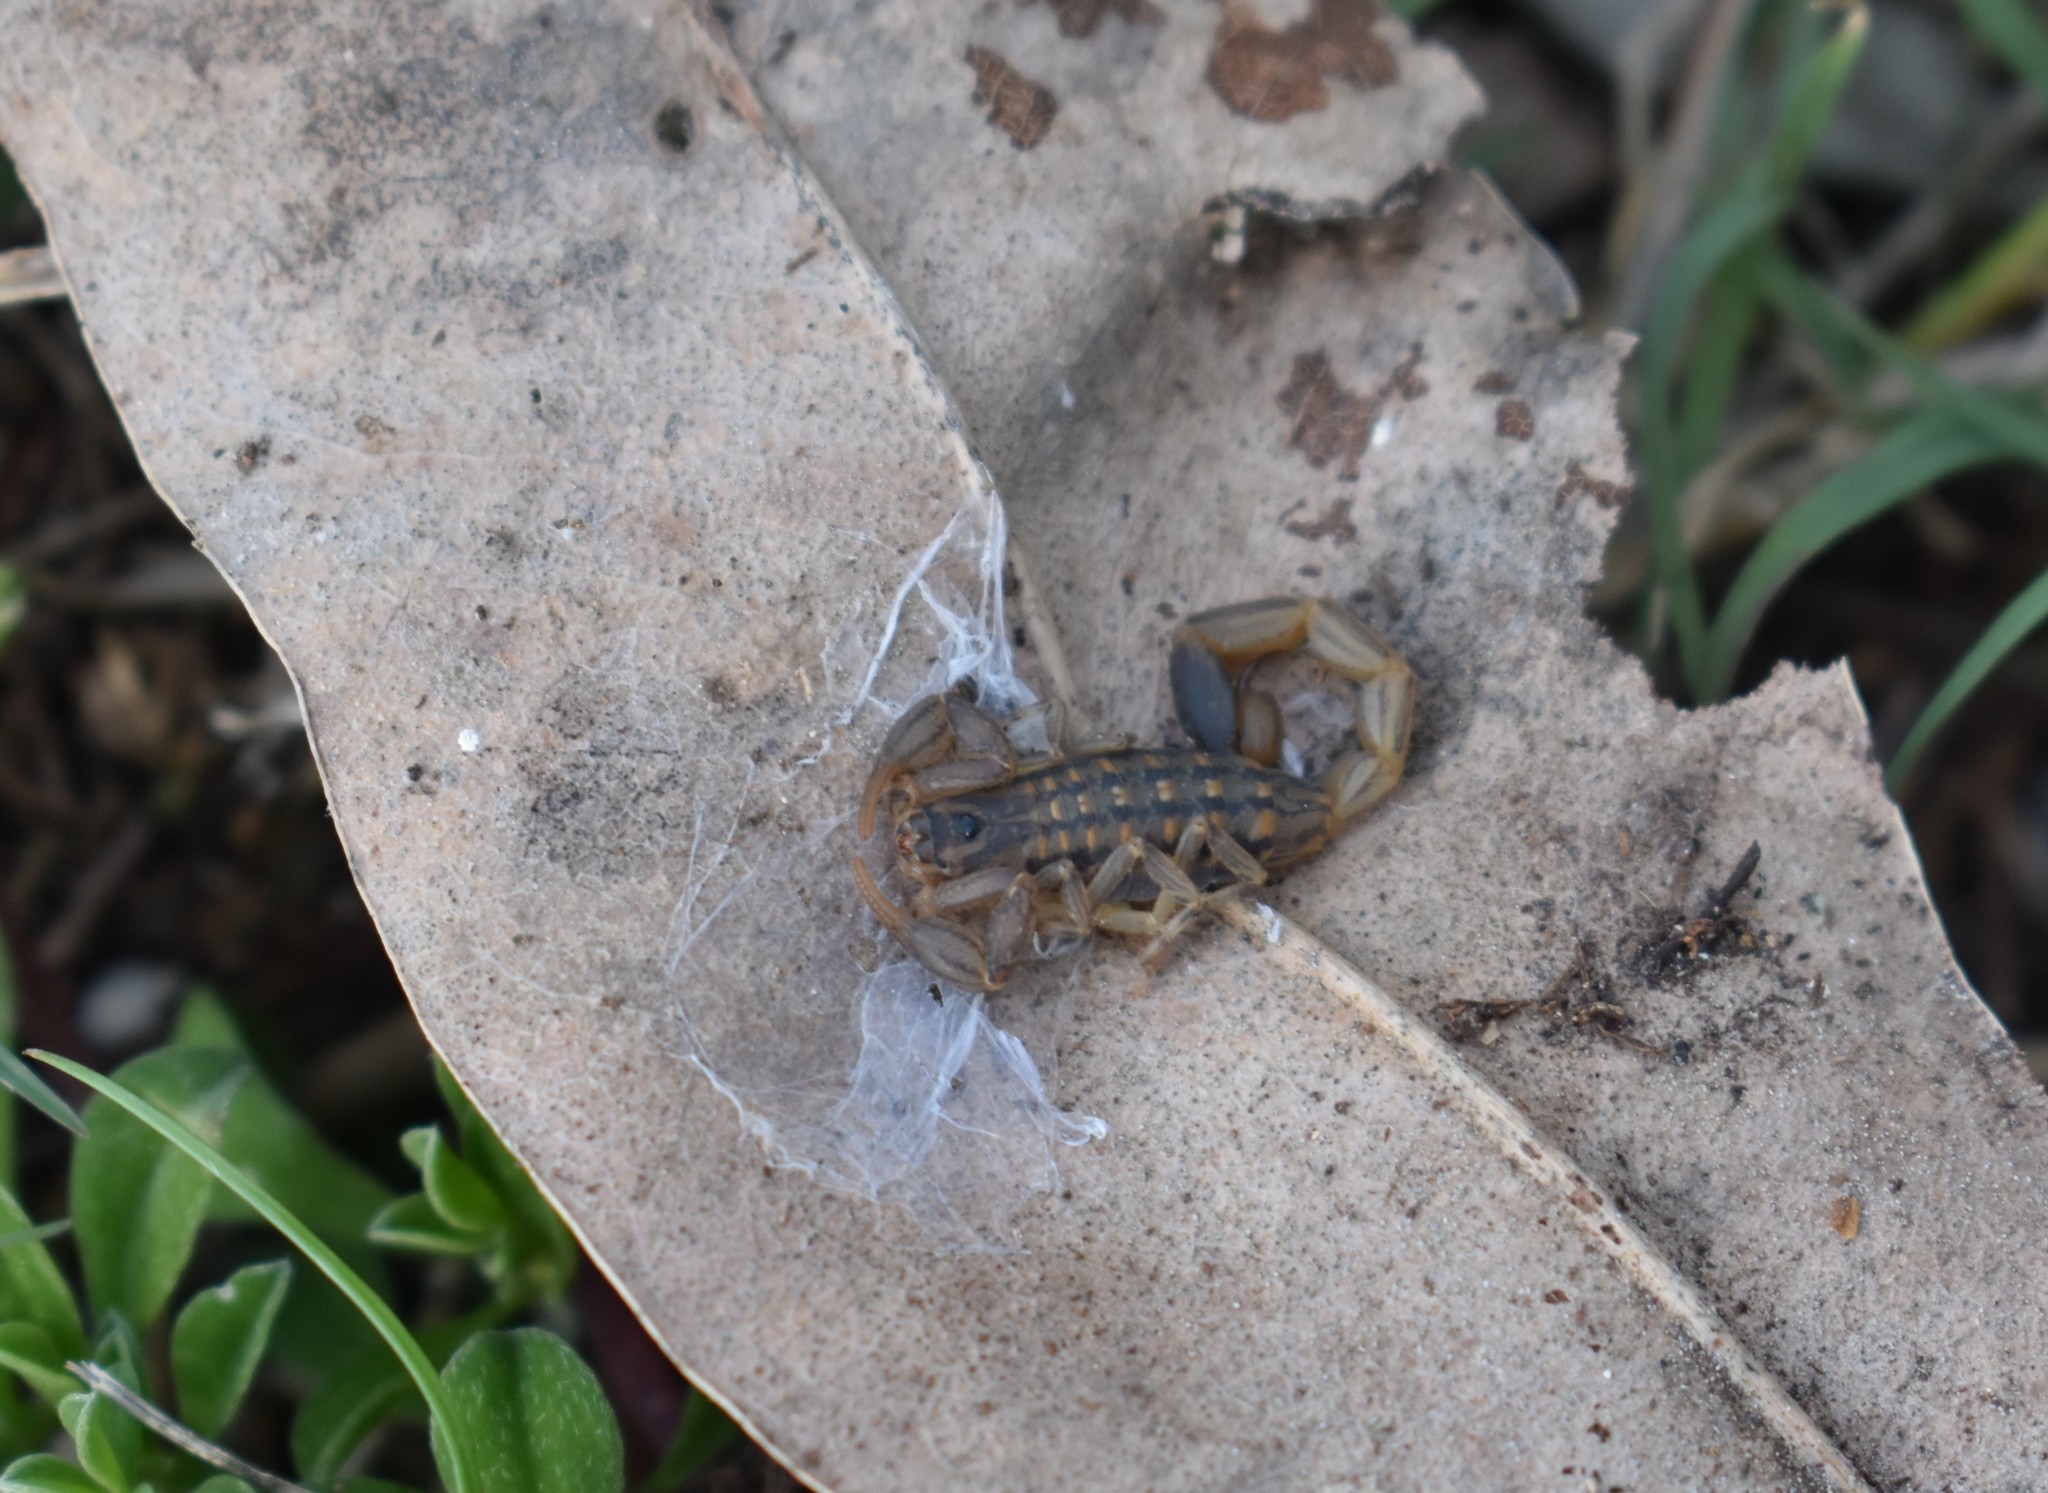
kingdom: Animalia
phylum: Arthropoda
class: Arachnida
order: Scorpiones
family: Buthidae
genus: Uroplectes
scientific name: Uroplectes lineatus
